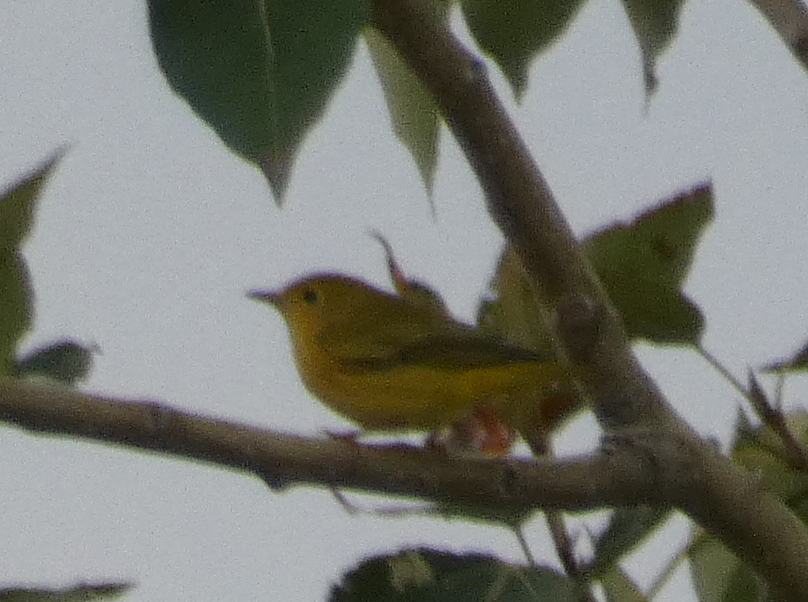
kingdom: Animalia
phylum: Chordata
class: Aves
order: Passeriformes
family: Parulidae
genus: Setophaga
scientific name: Setophaga petechia
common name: Yellow warbler
